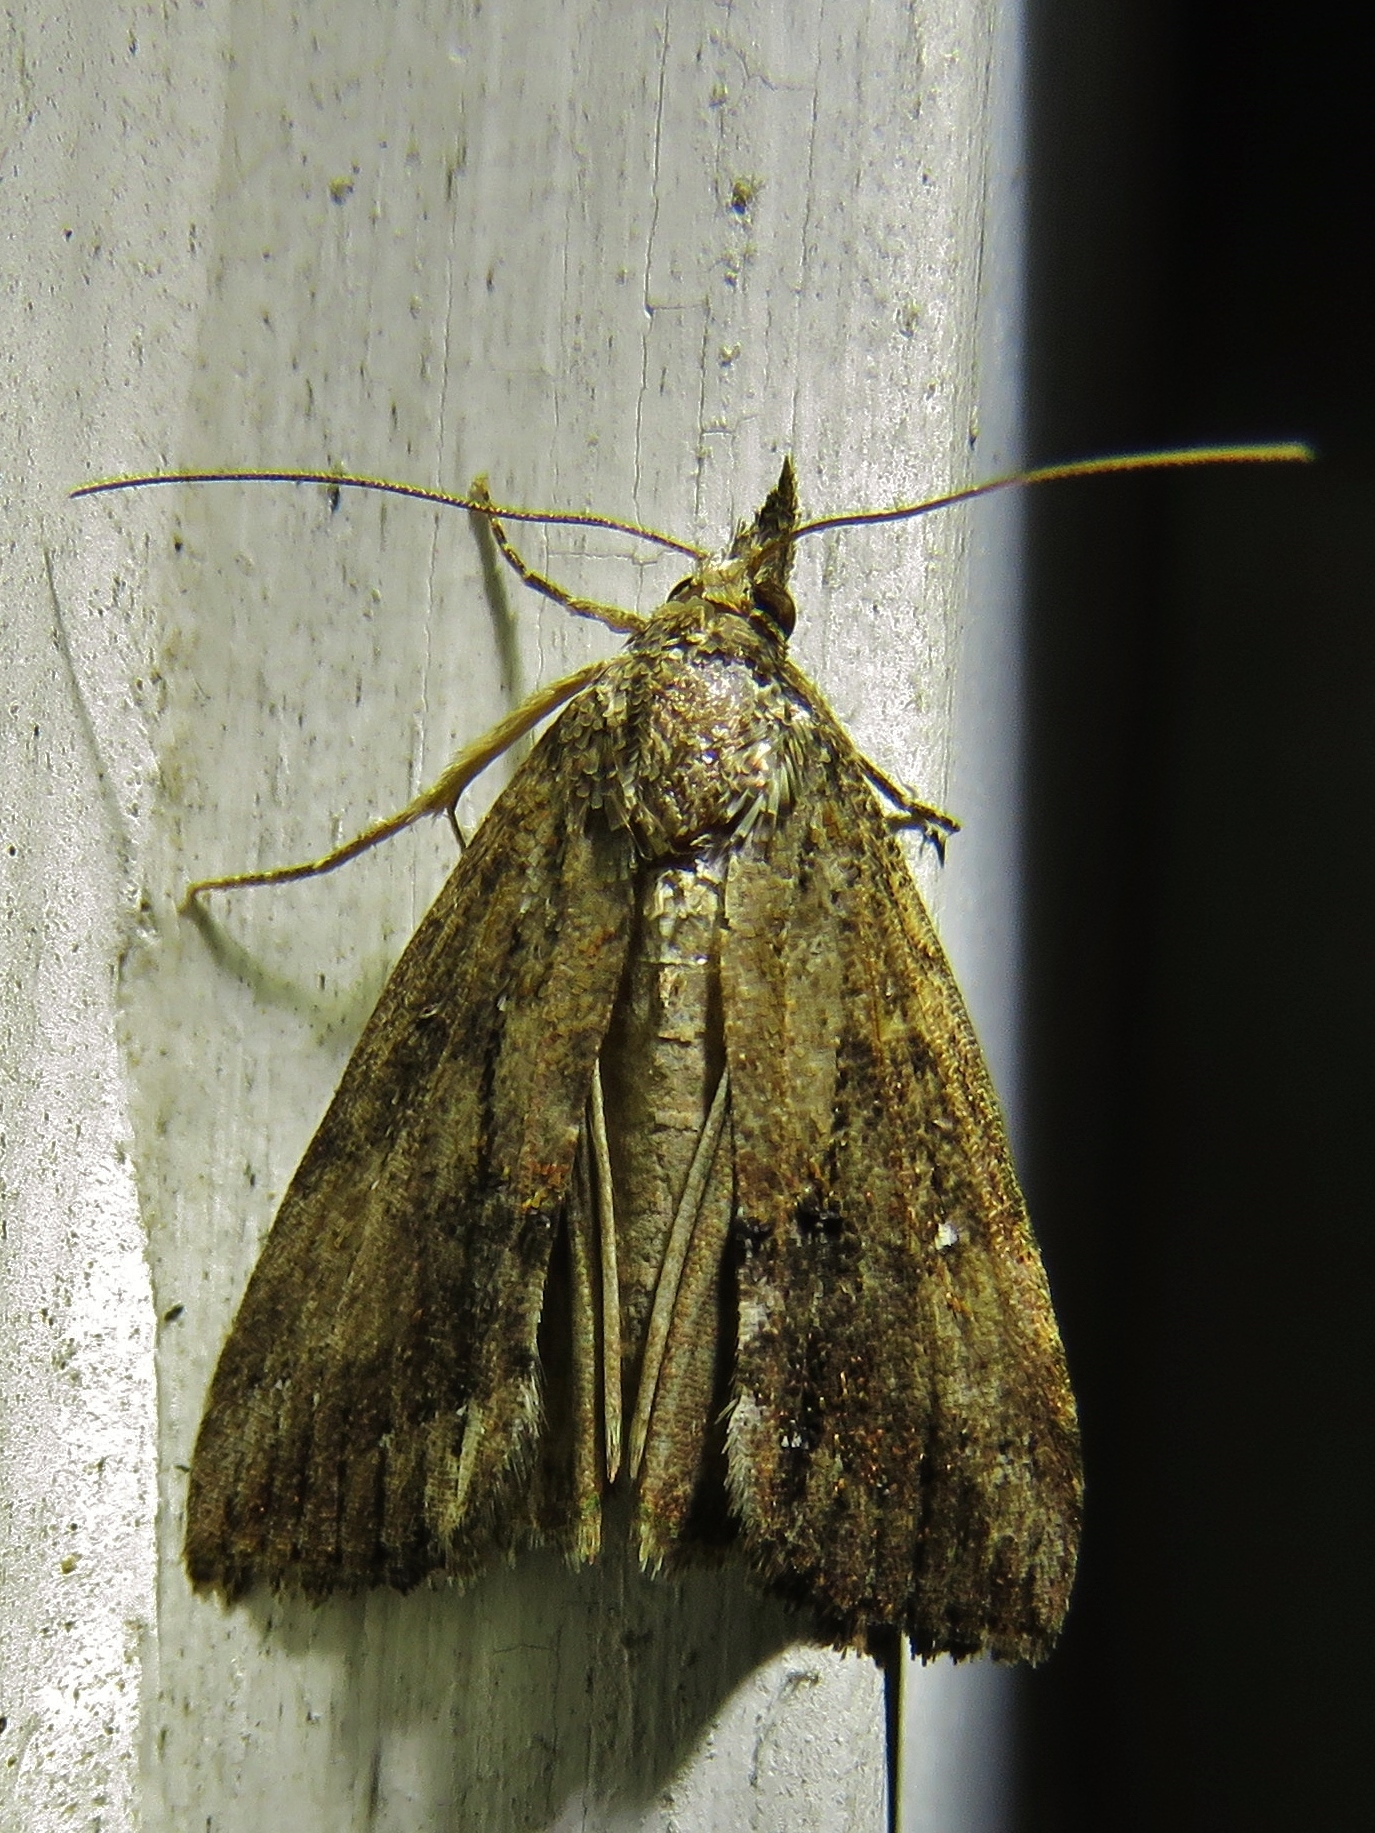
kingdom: Animalia
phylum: Arthropoda
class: Insecta
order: Lepidoptera
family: Erebidae
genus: Hypena
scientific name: Hypena scabra
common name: Green cloverworm
